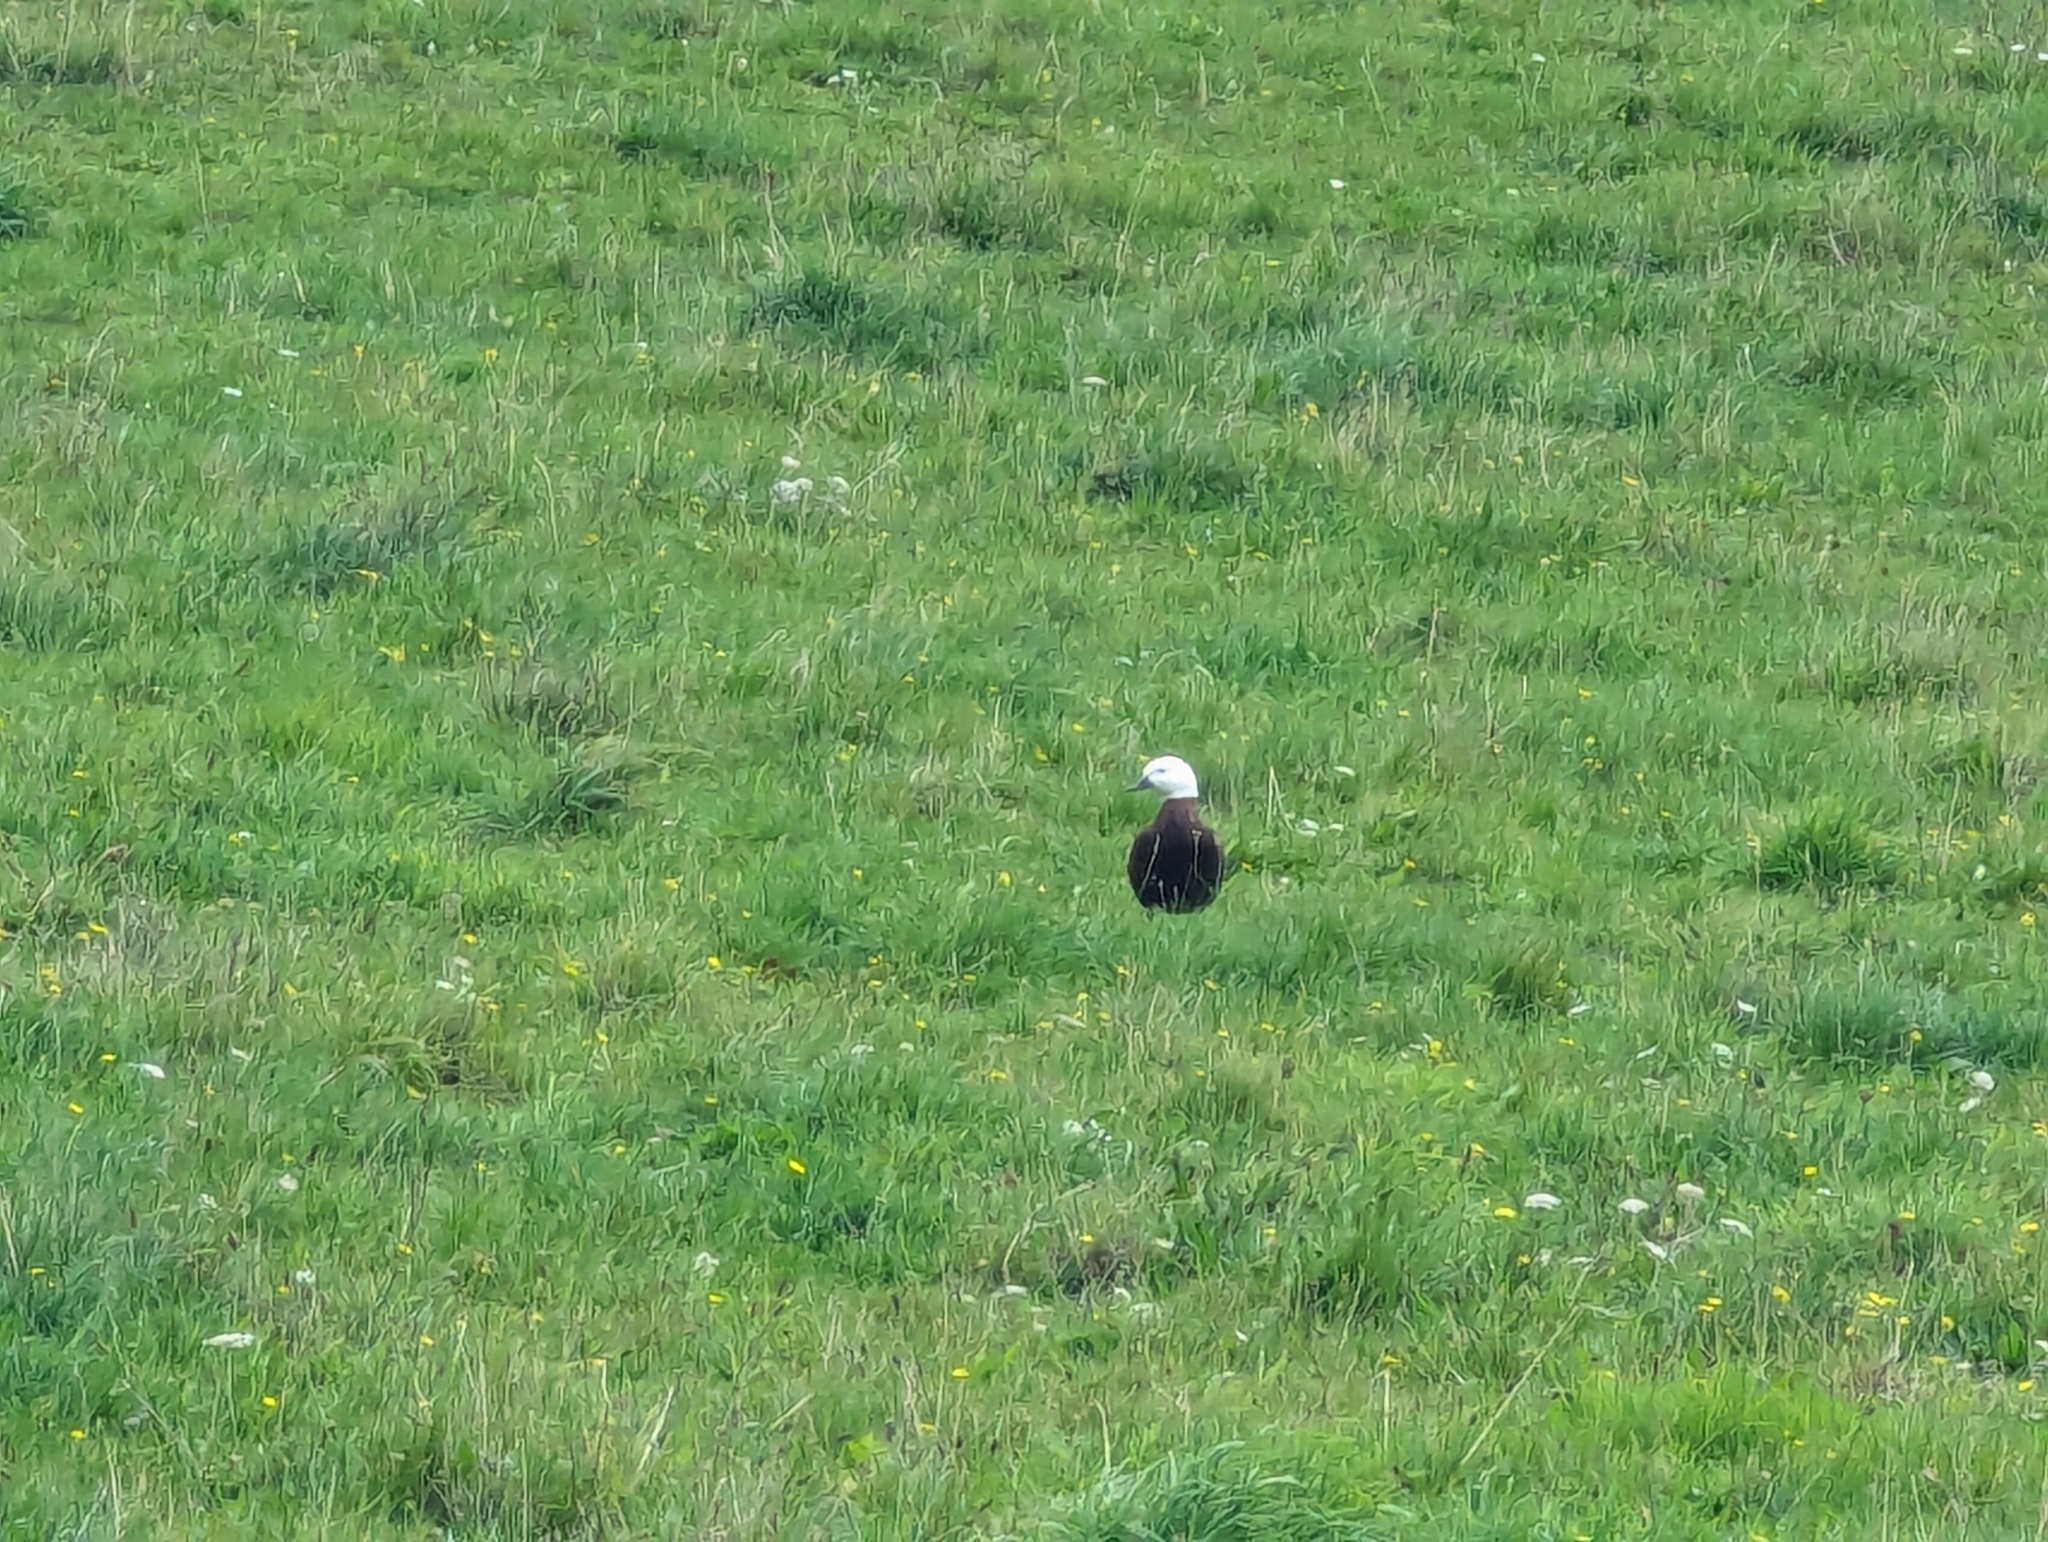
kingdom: Animalia
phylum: Chordata
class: Aves
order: Anseriformes
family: Anatidae
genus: Tadorna
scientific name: Tadorna variegata
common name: Paradise shelduck
